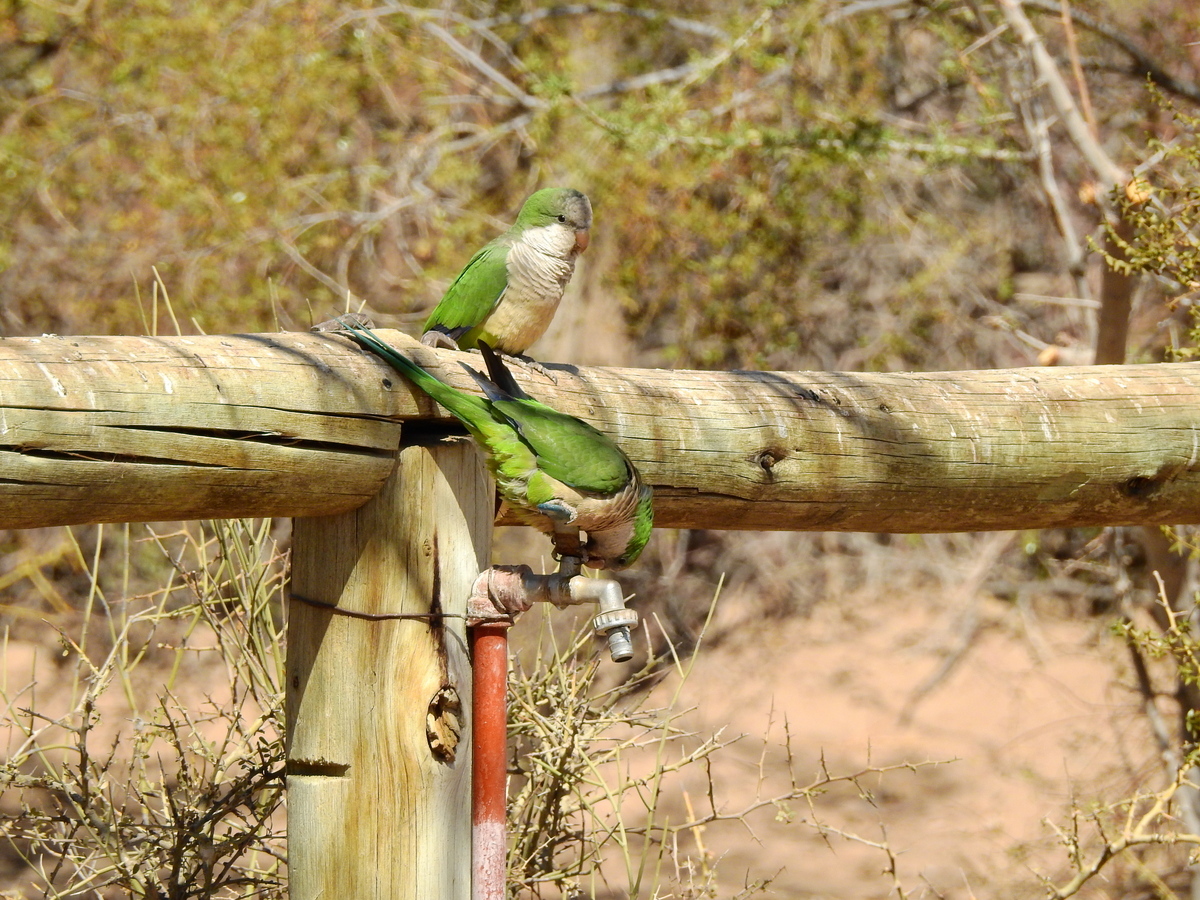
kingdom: Animalia
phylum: Chordata
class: Aves
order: Psittaciformes
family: Psittacidae
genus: Myiopsitta
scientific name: Myiopsitta monachus
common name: Monk parakeet
